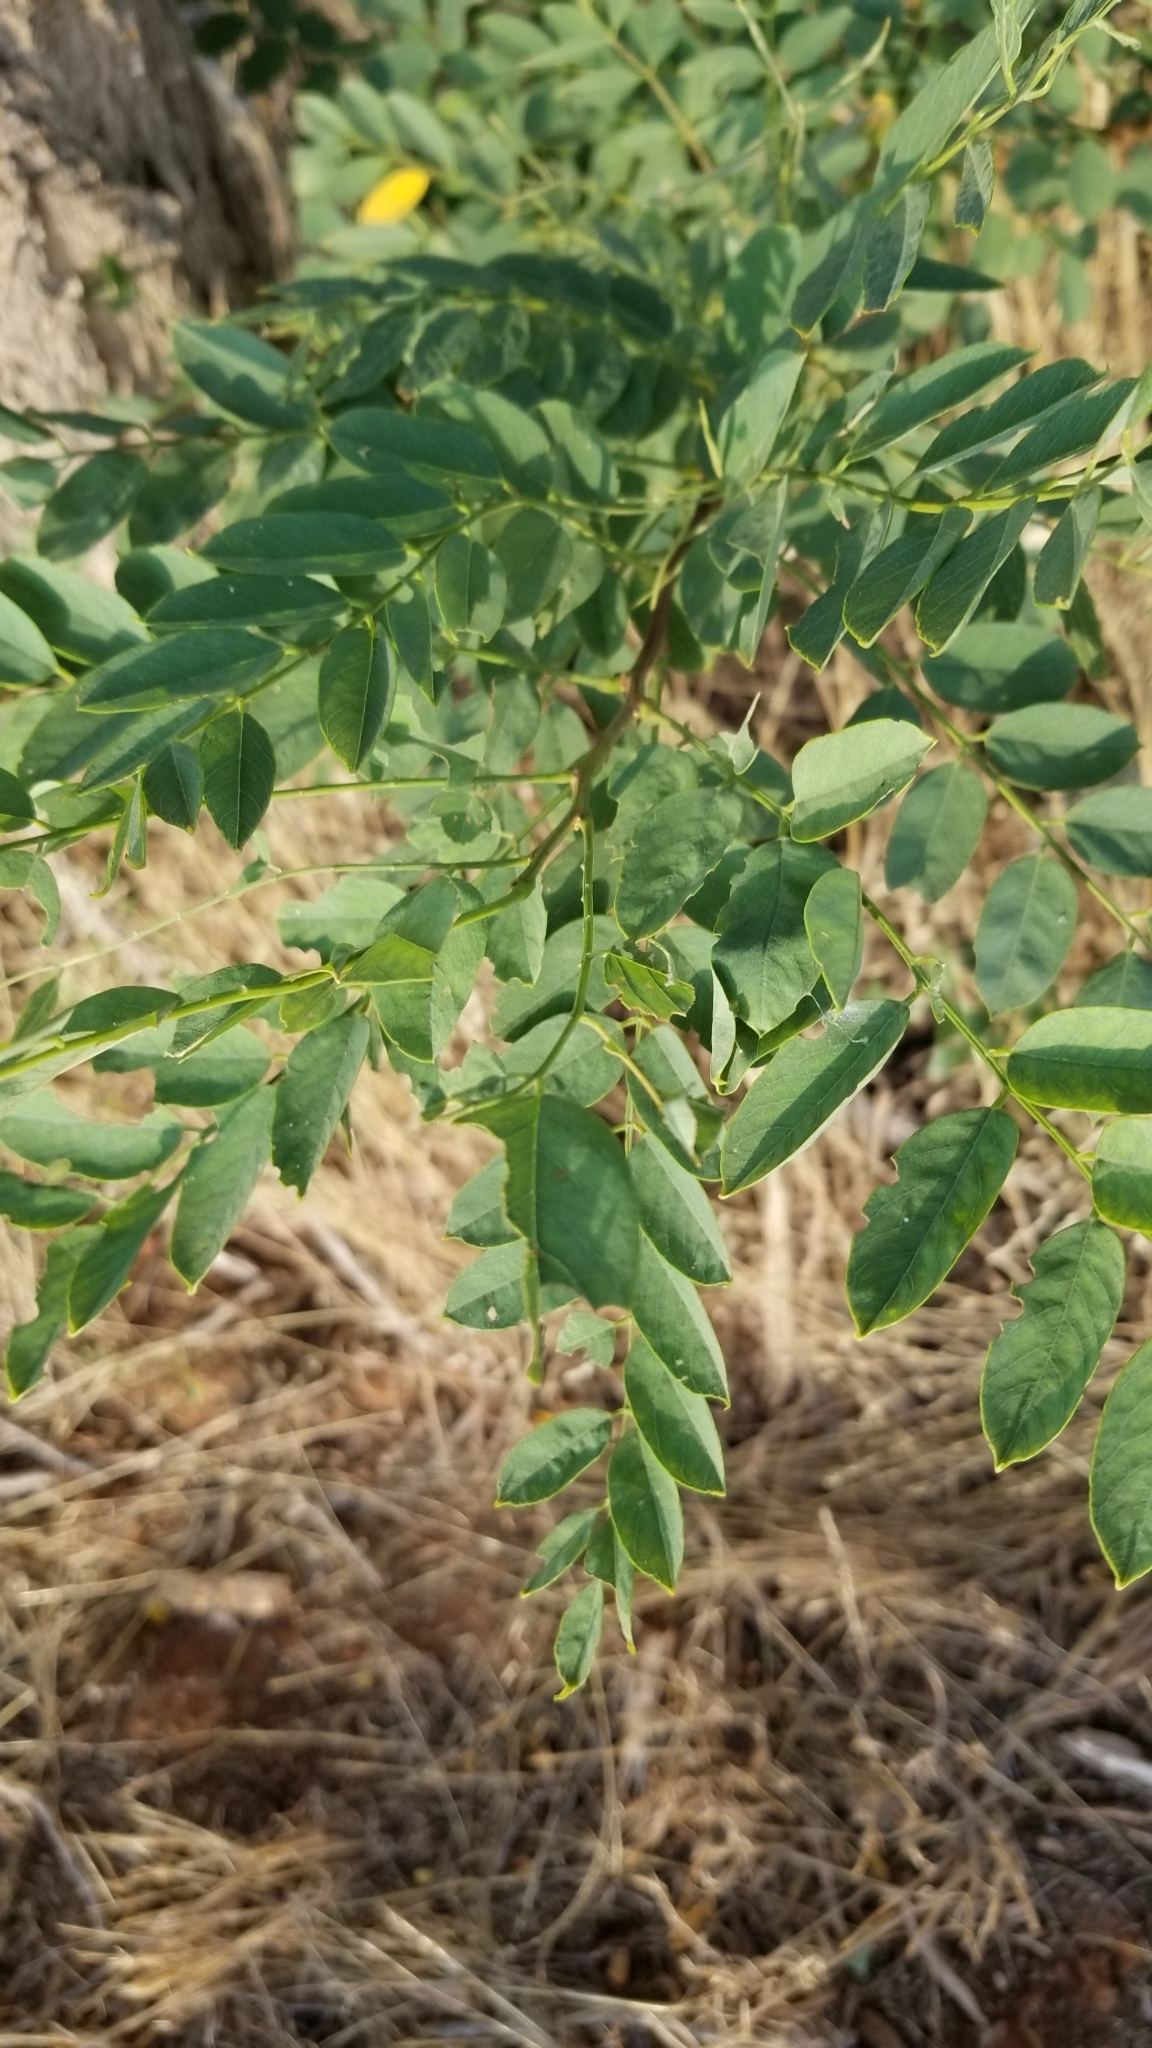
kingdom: Plantae
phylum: Tracheophyta
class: Magnoliopsida
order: Fabales
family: Fabaceae
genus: Robinia
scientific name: Robinia pseudoacacia
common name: Black locust
